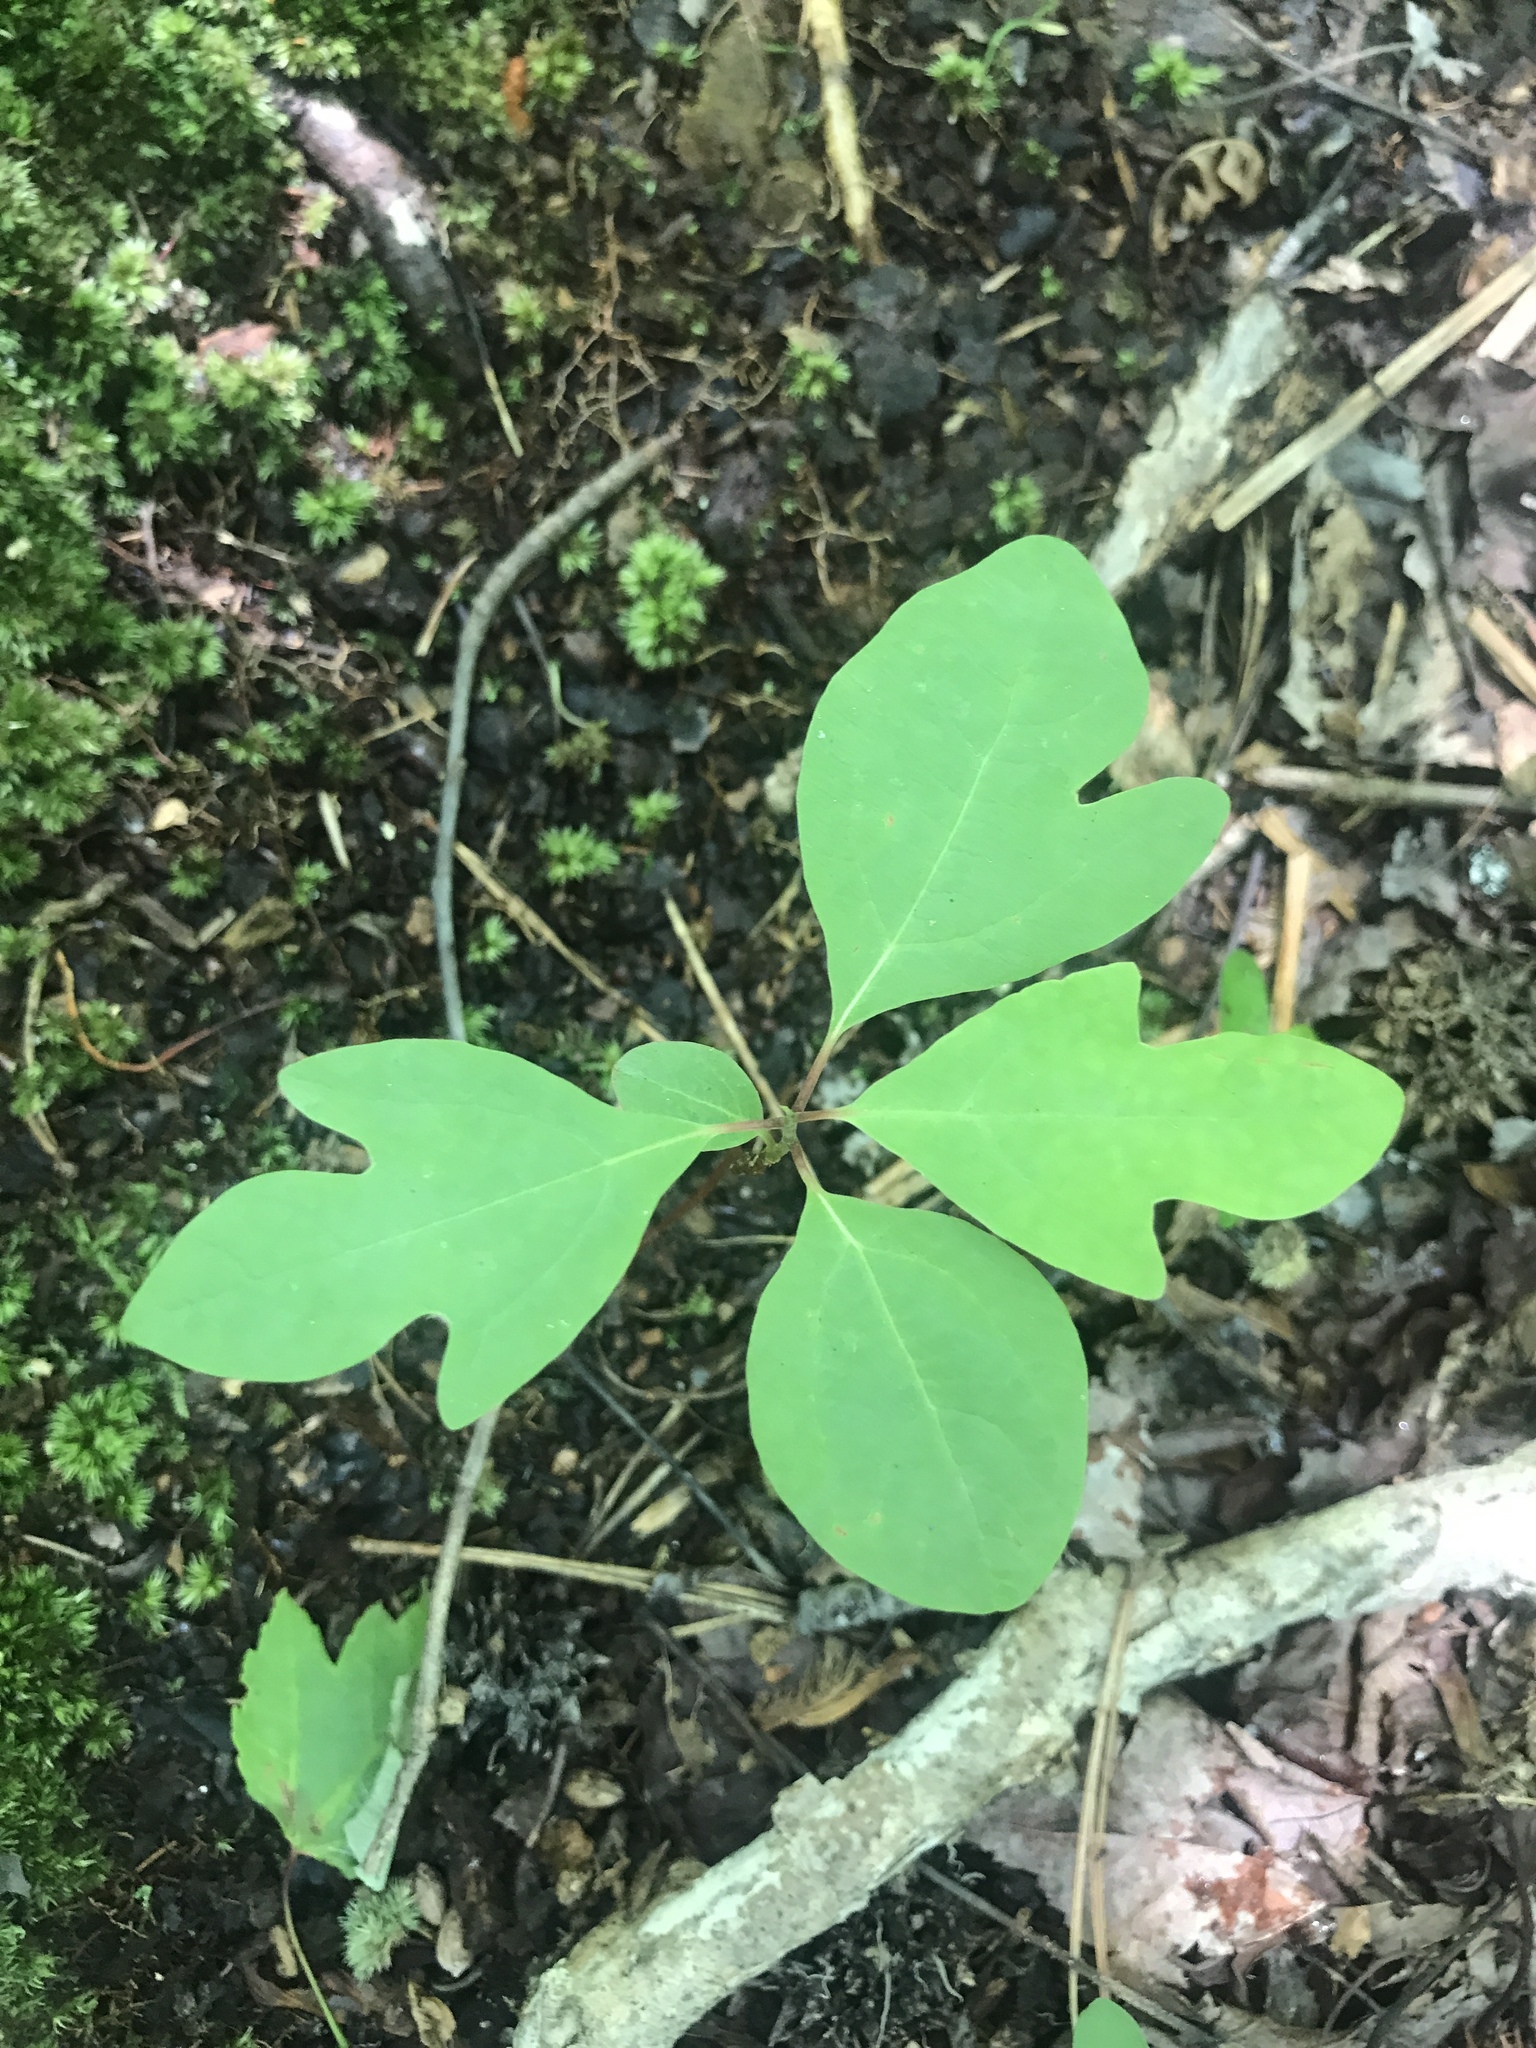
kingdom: Plantae
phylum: Tracheophyta
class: Magnoliopsida
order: Laurales
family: Lauraceae
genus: Sassafras
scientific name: Sassafras albidum
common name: Sassafras
